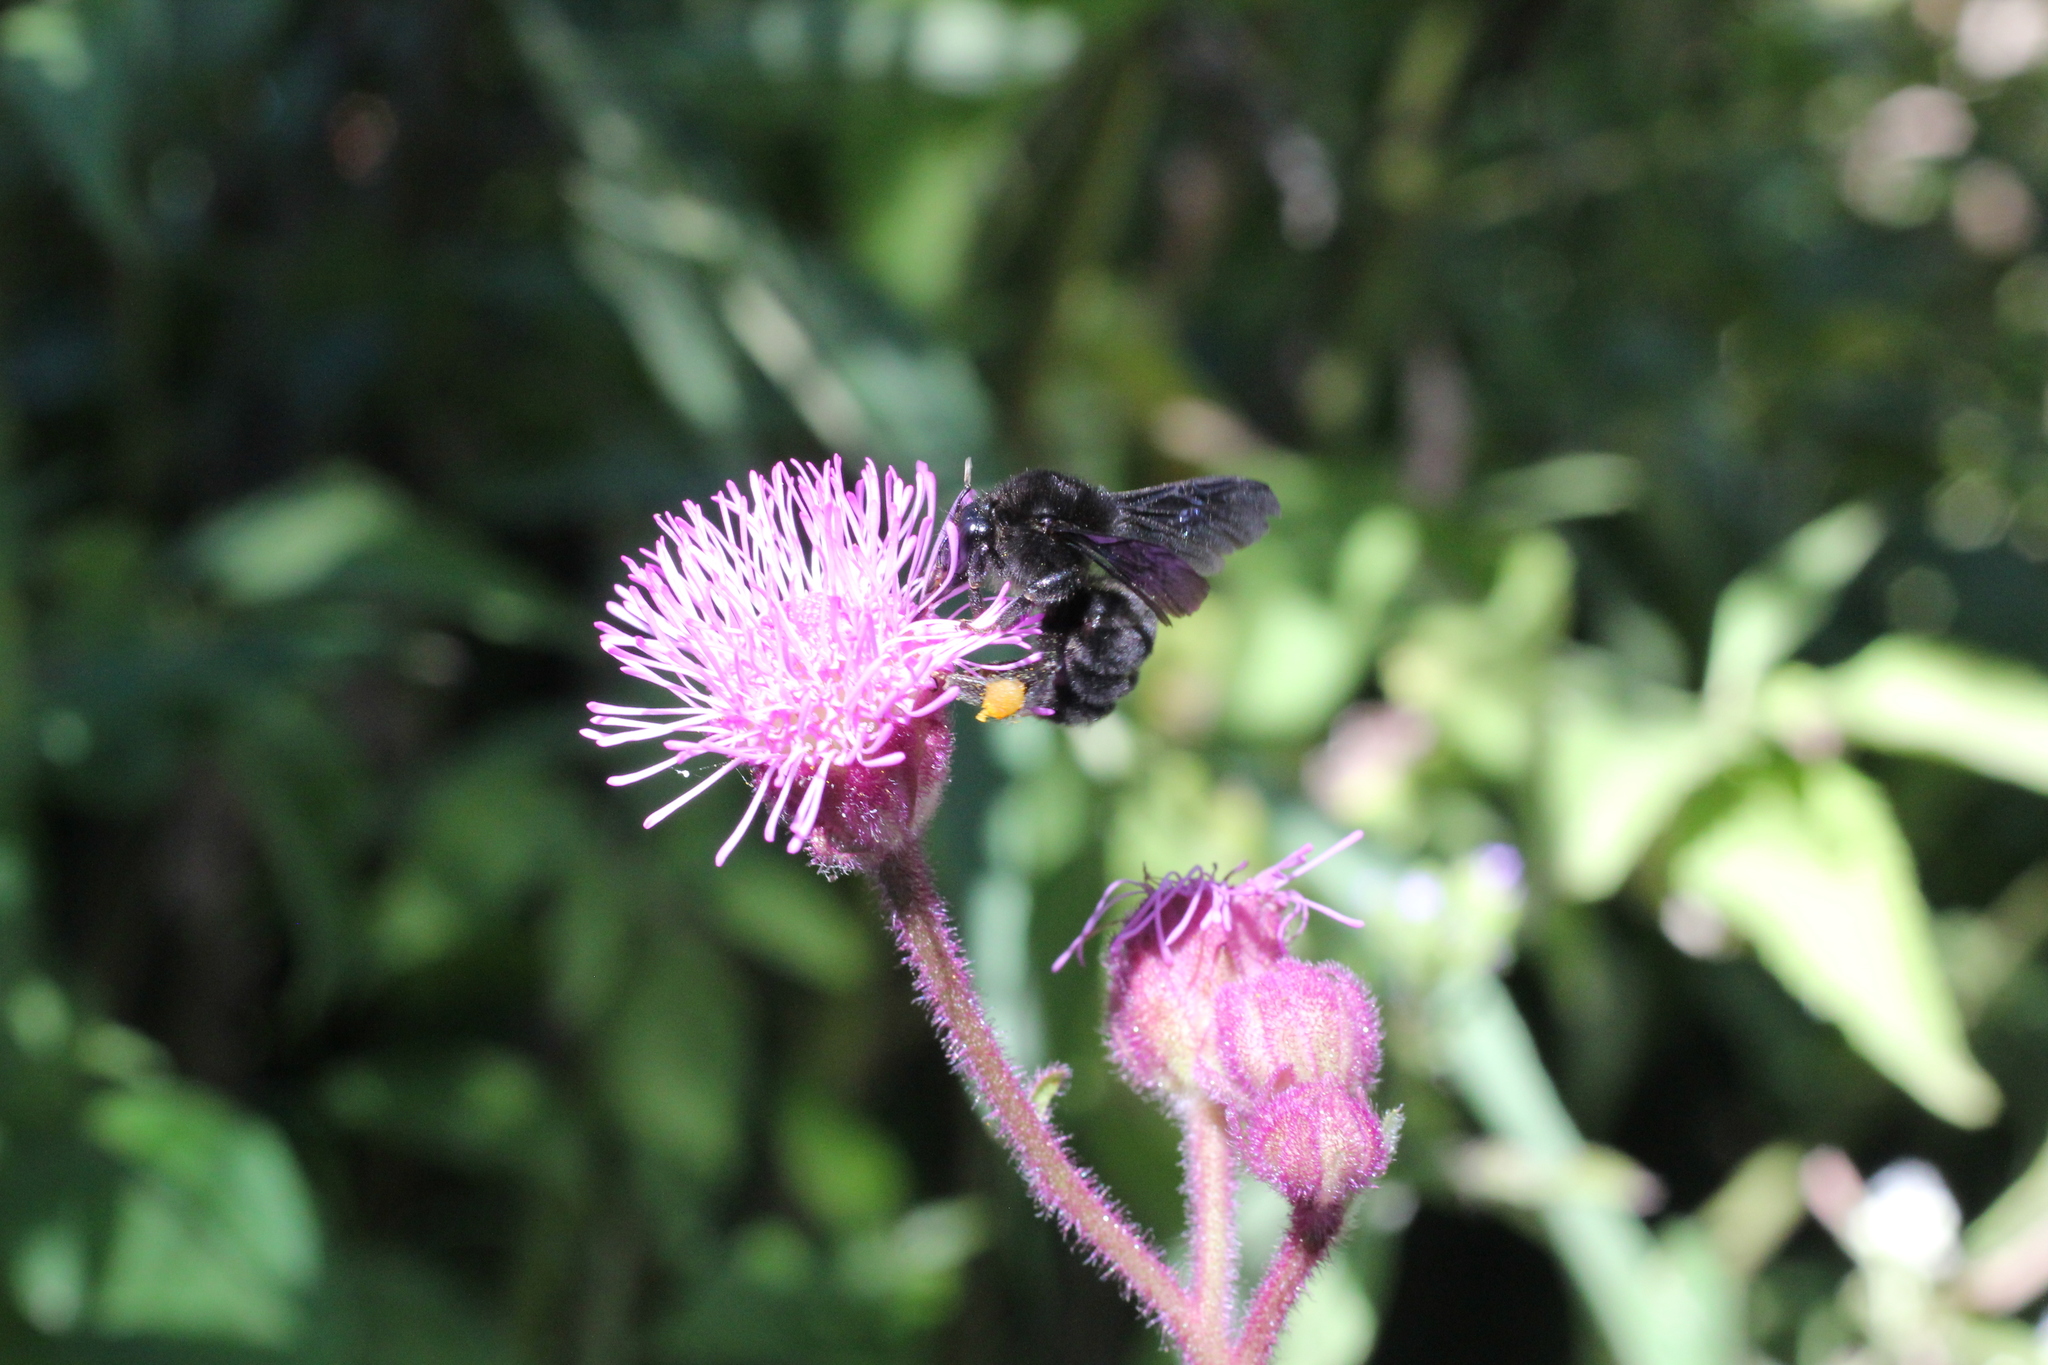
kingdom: Animalia
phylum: Arthropoda
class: Insecta
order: Hymenoptera
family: Apidae
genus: Bombus
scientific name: Bombus pauloensis
